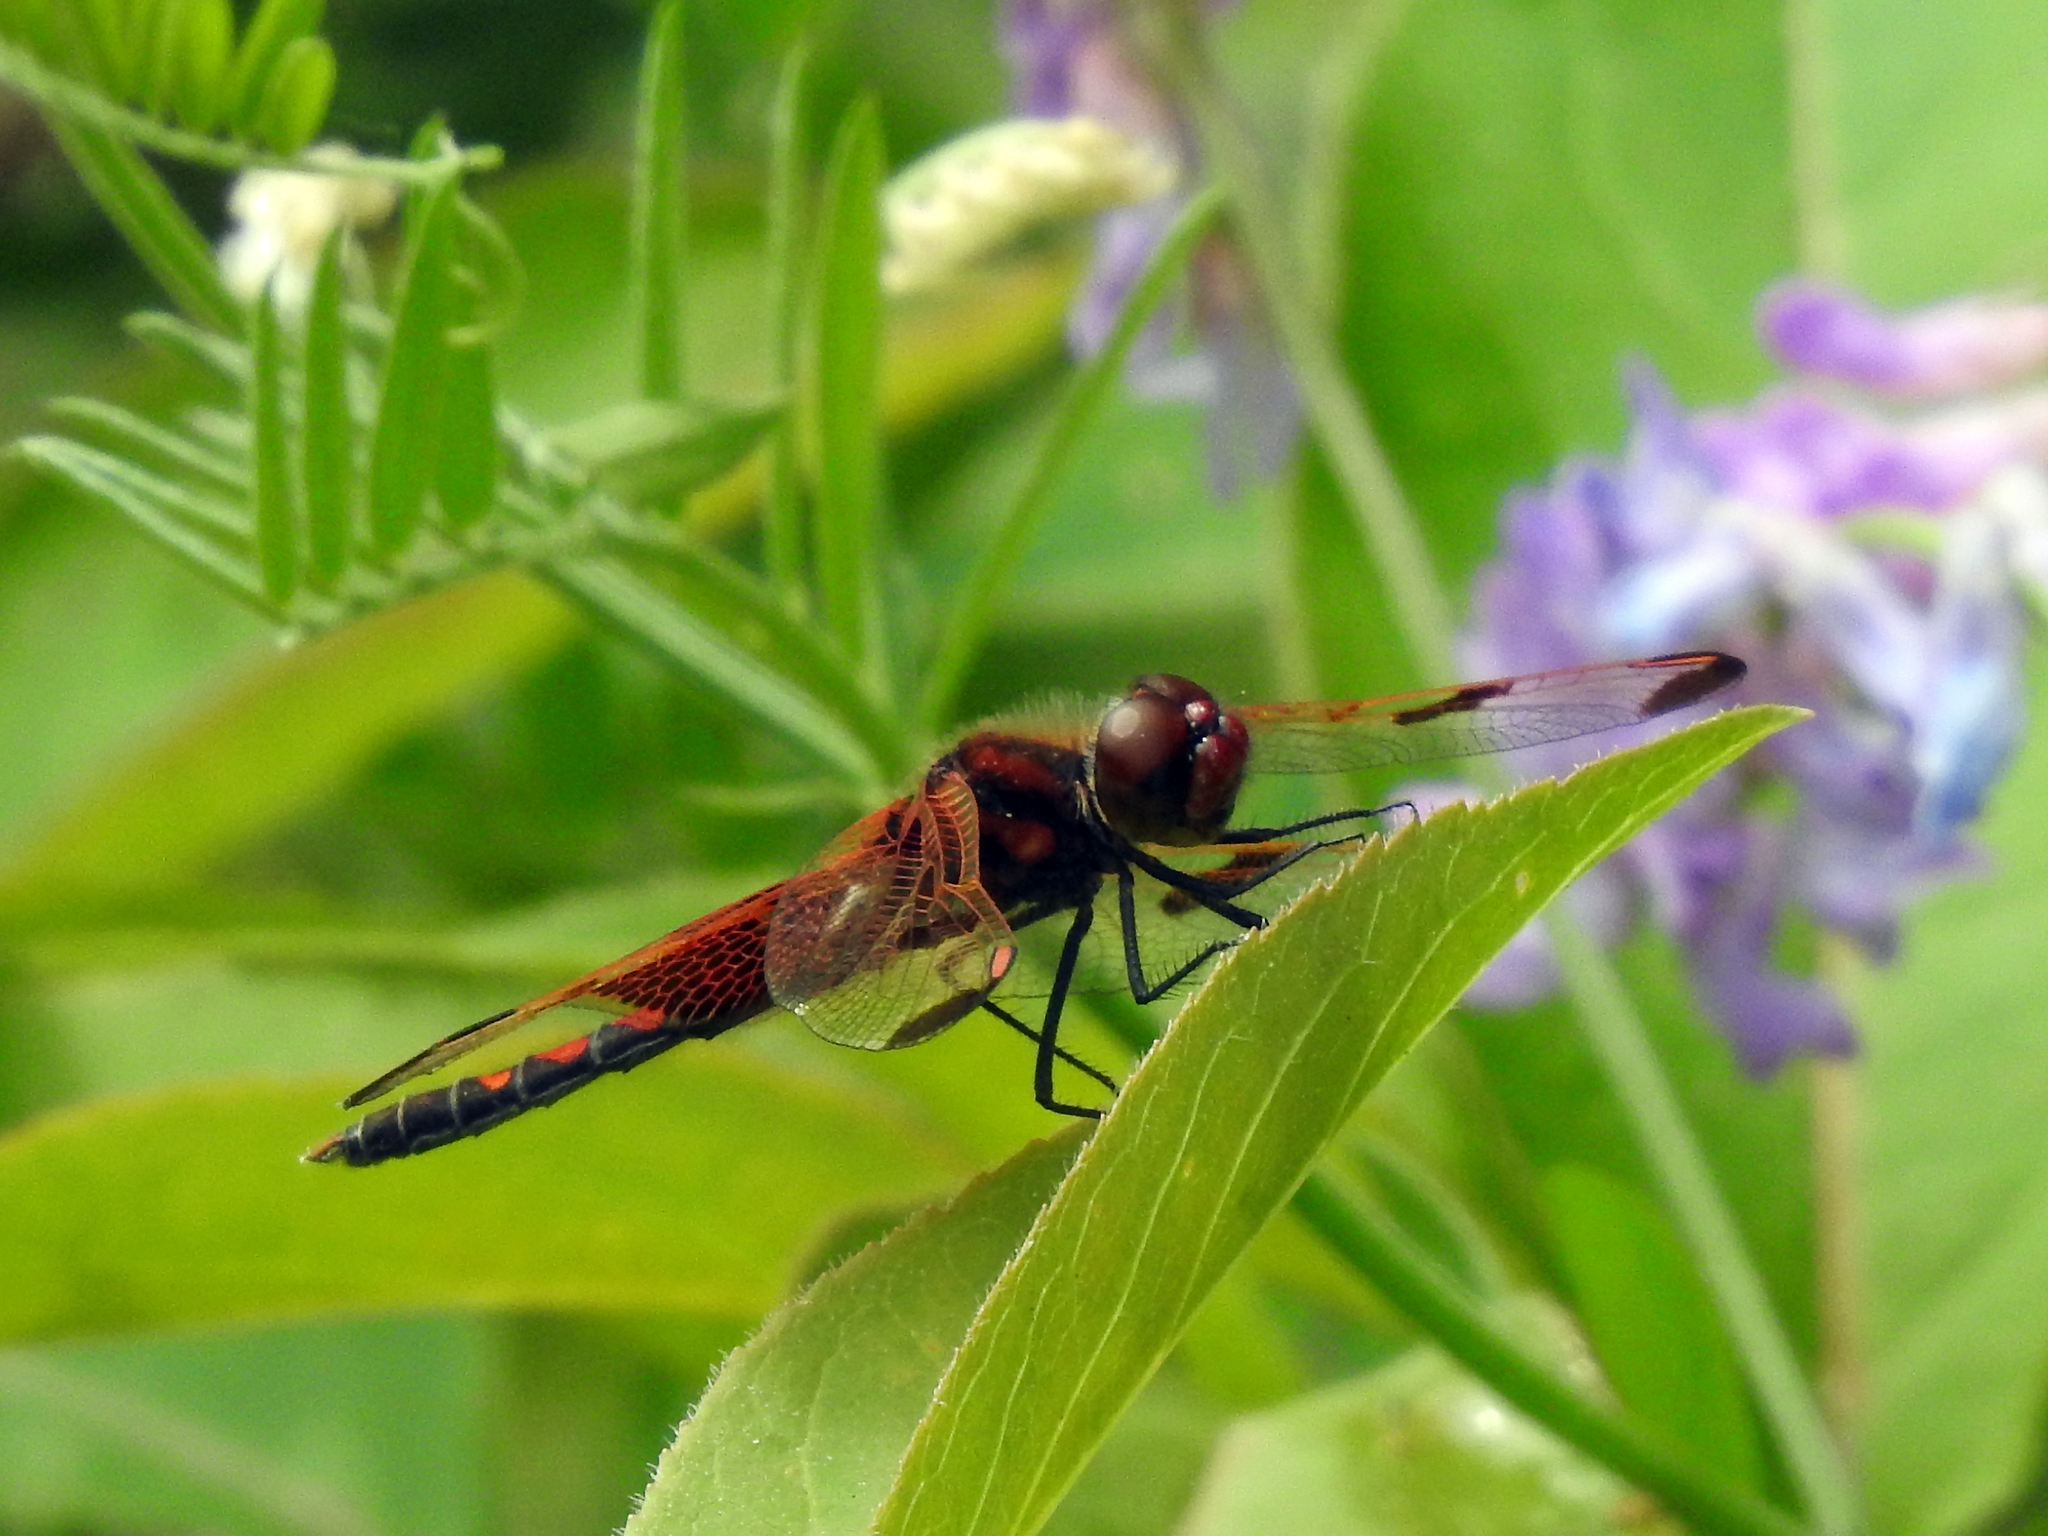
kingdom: Animalia
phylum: Arthropoda
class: Insecta
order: Odonata
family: Libellulidae
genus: Celithemis
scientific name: Celithemis elisa
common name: Calico pennant
